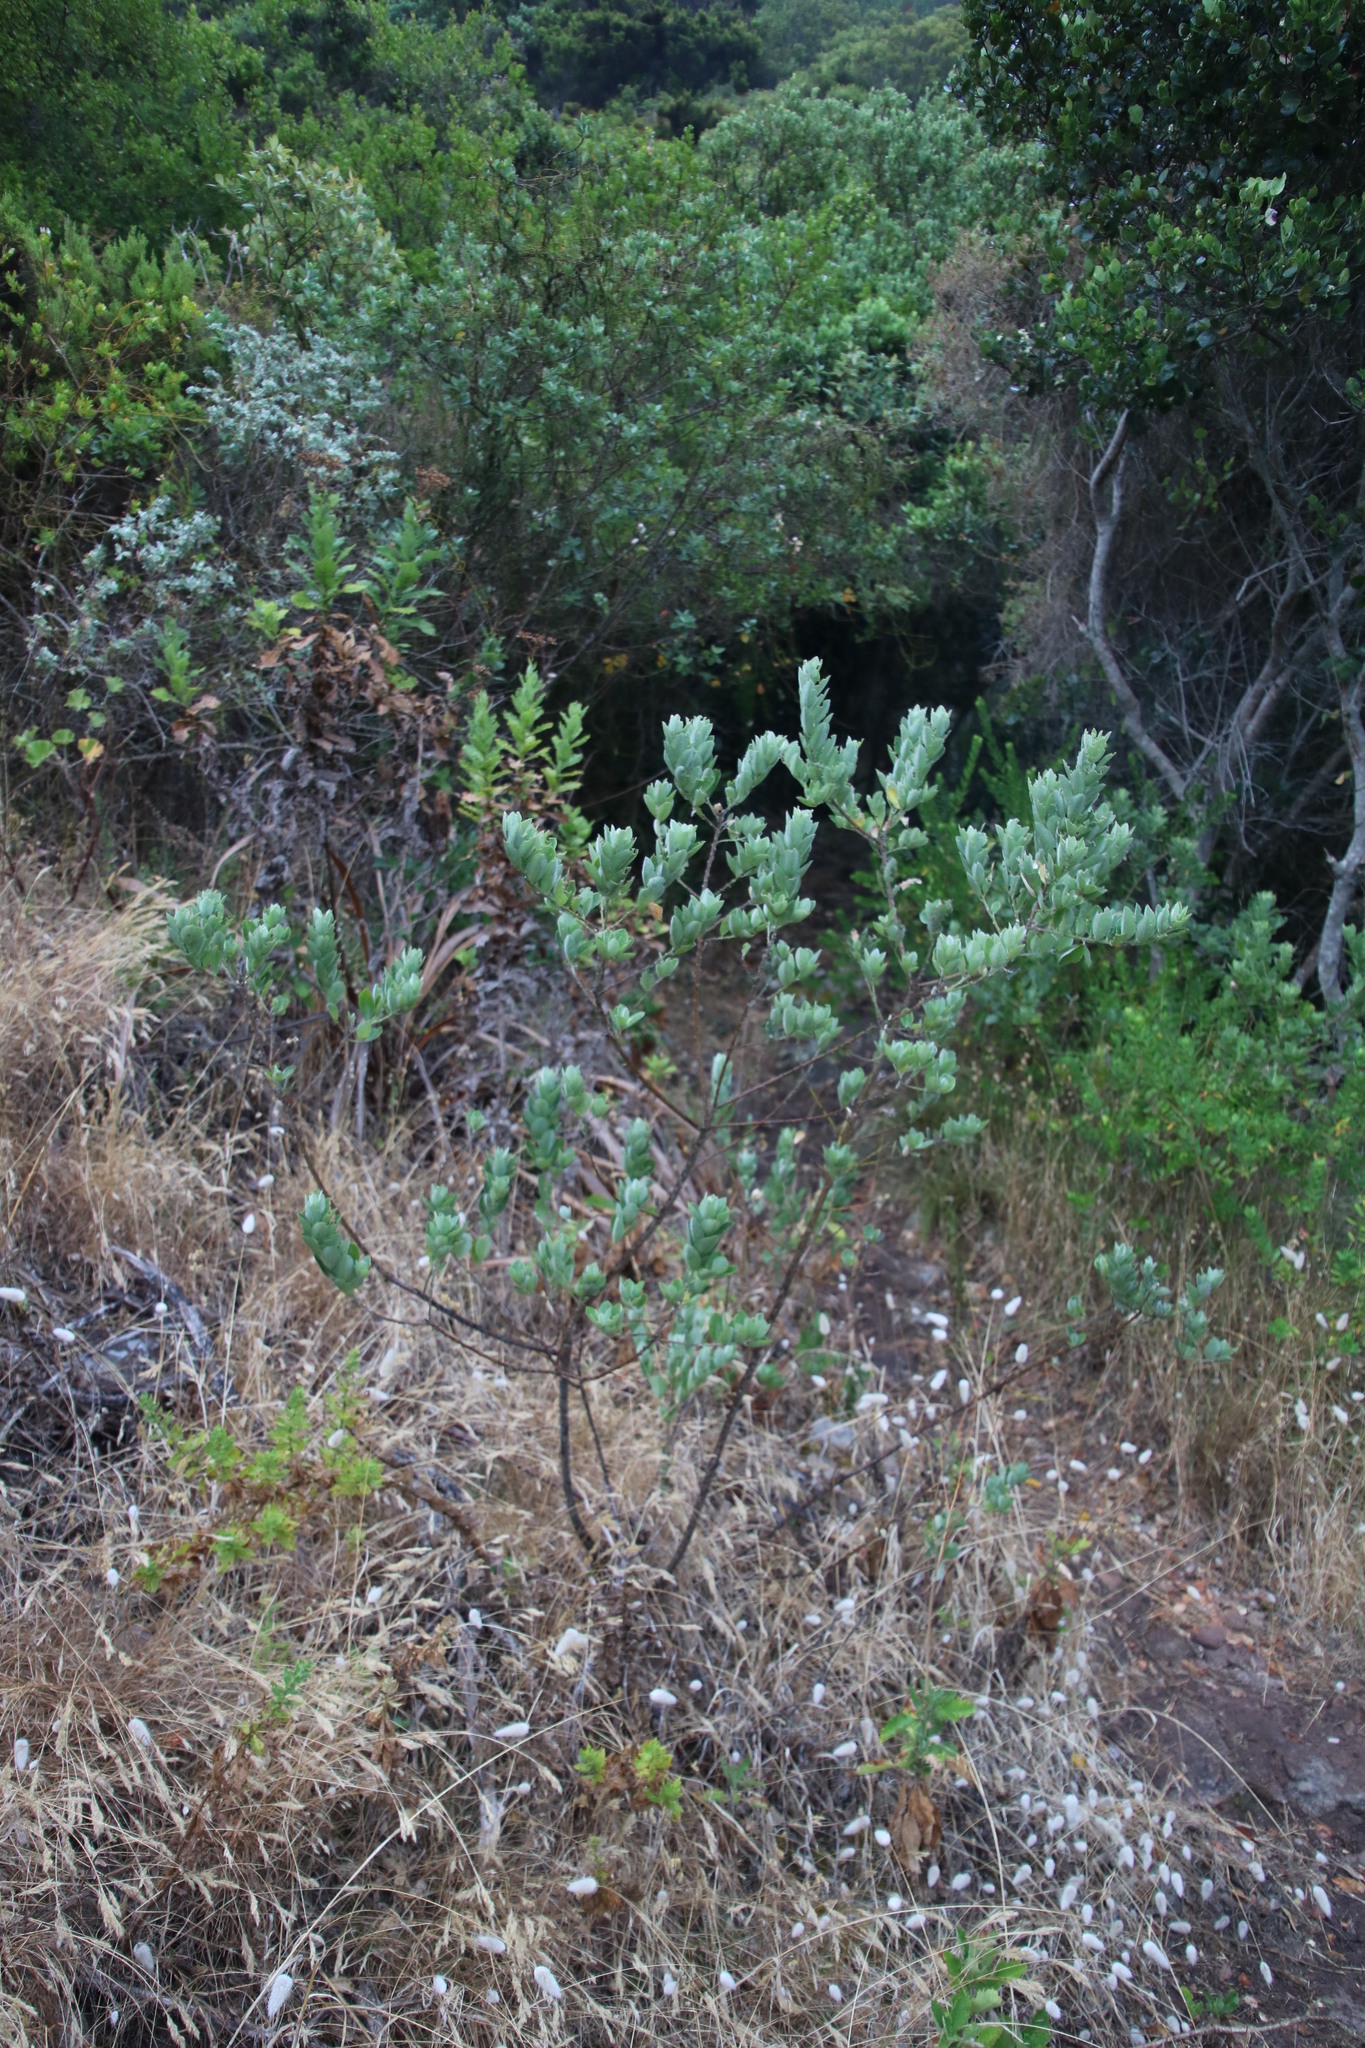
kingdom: Plantae
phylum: Tracheophyta
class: Magnoliopsida
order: Fabales
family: Fabaceae
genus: Podalyria
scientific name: Podalyria calyptrata
